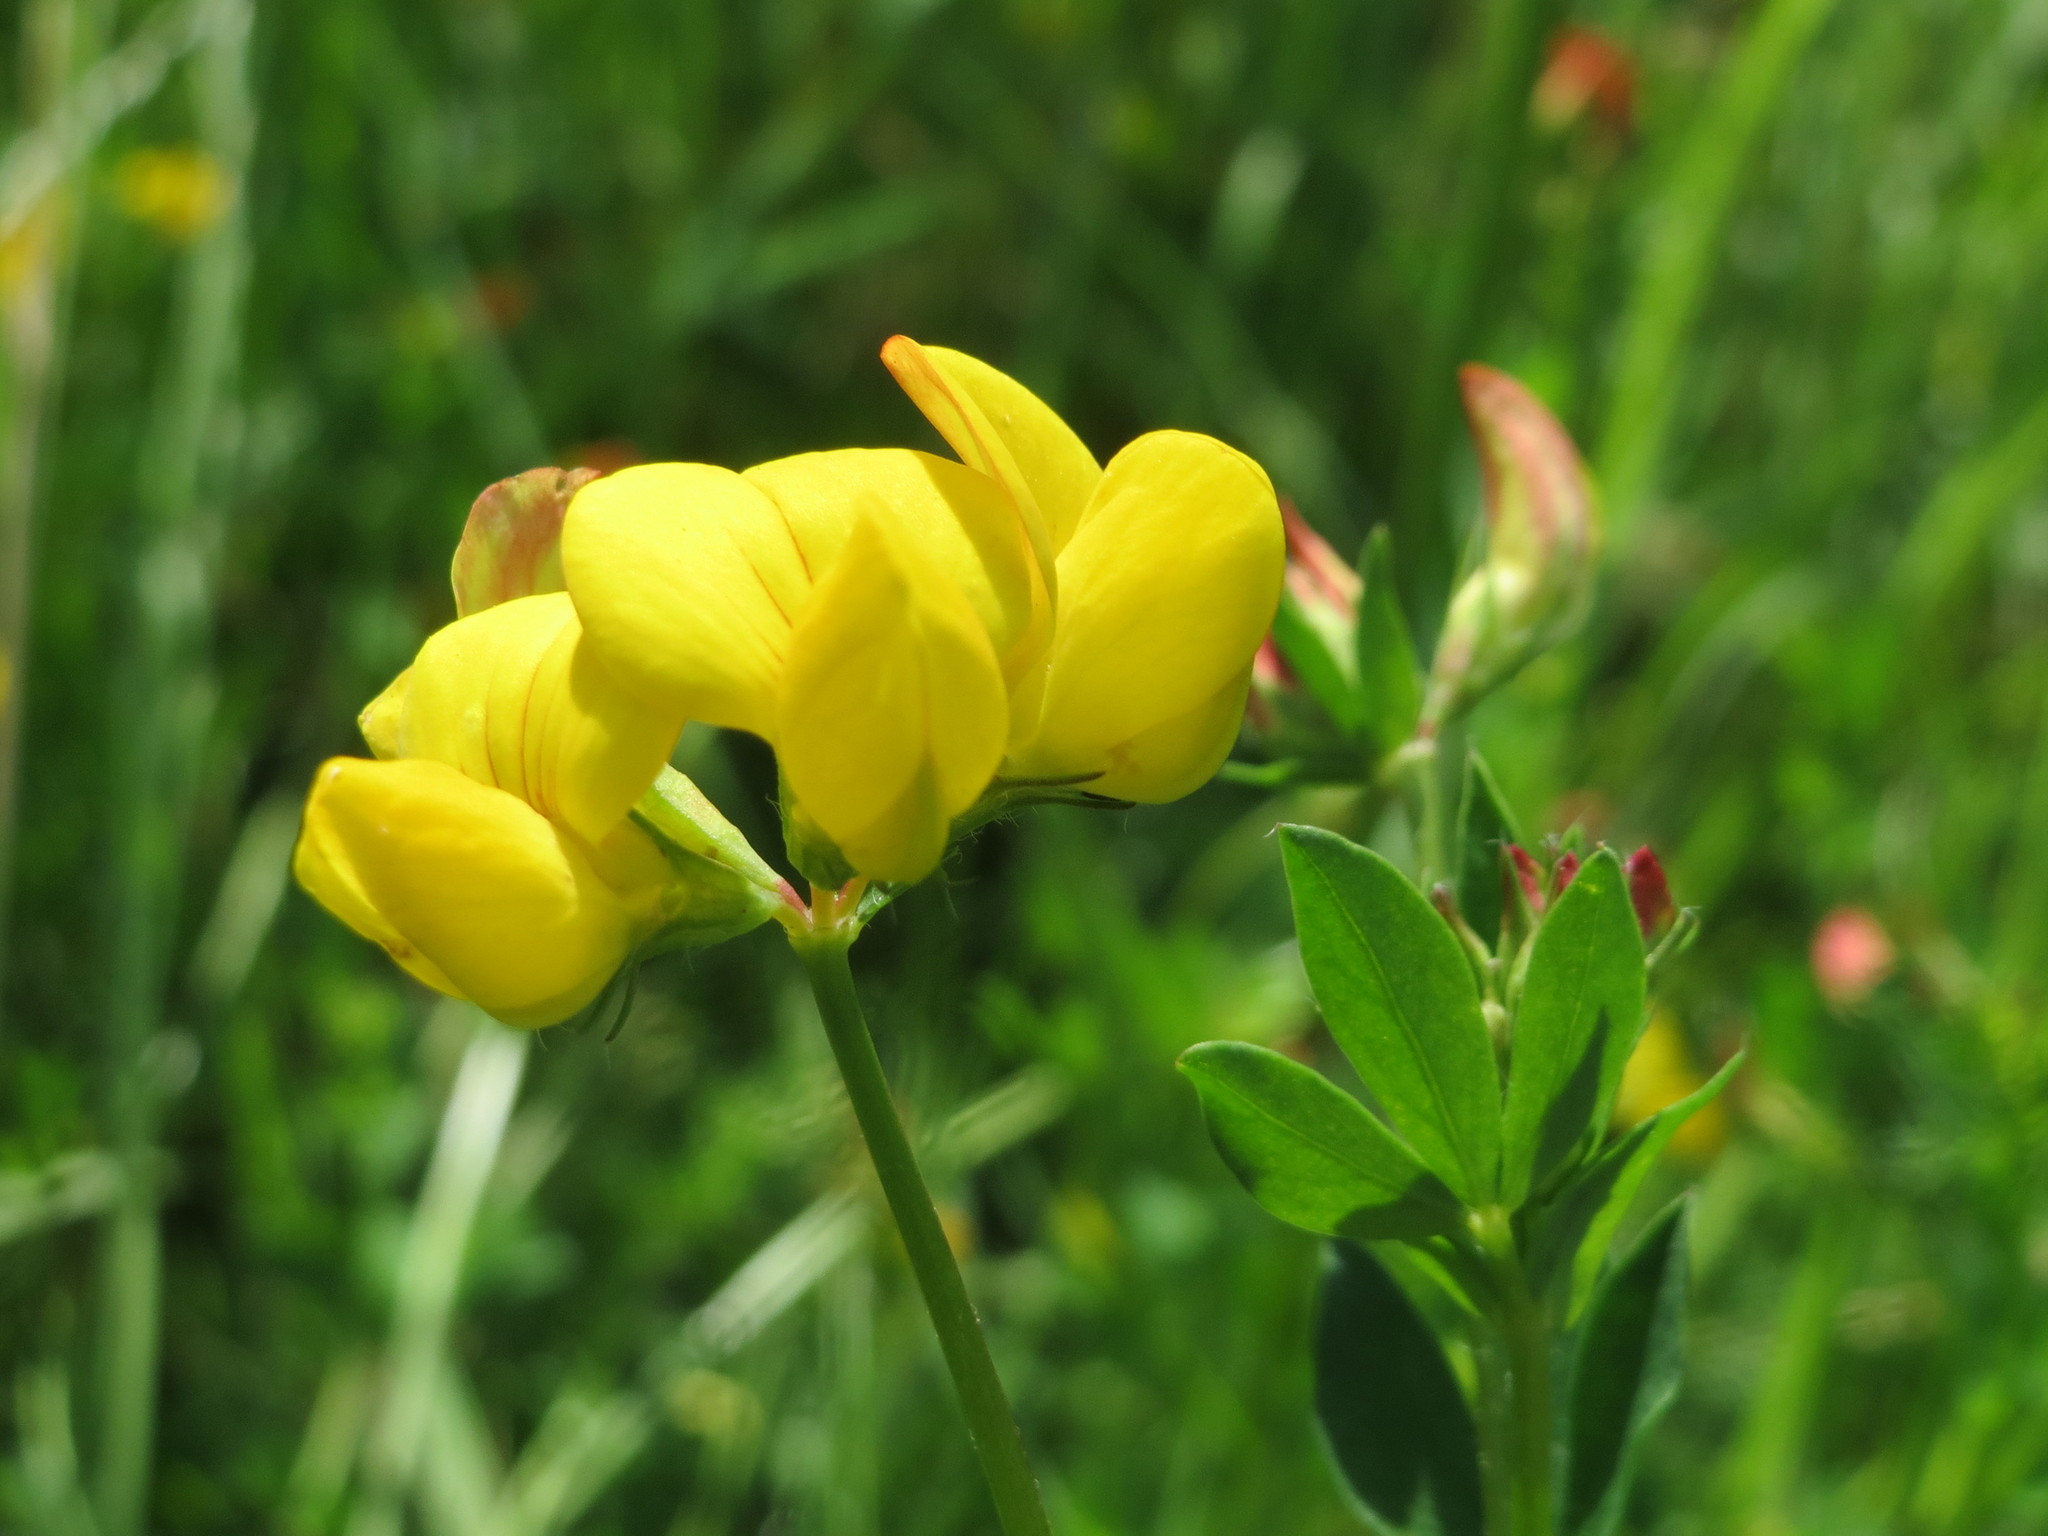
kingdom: Plantae
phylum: Tracheophyta
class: Magnoliopsida
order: Fabales
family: Fabaceae
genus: Lotus
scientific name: Lotus corniculatus
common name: Common bird's-foot-trefoil
